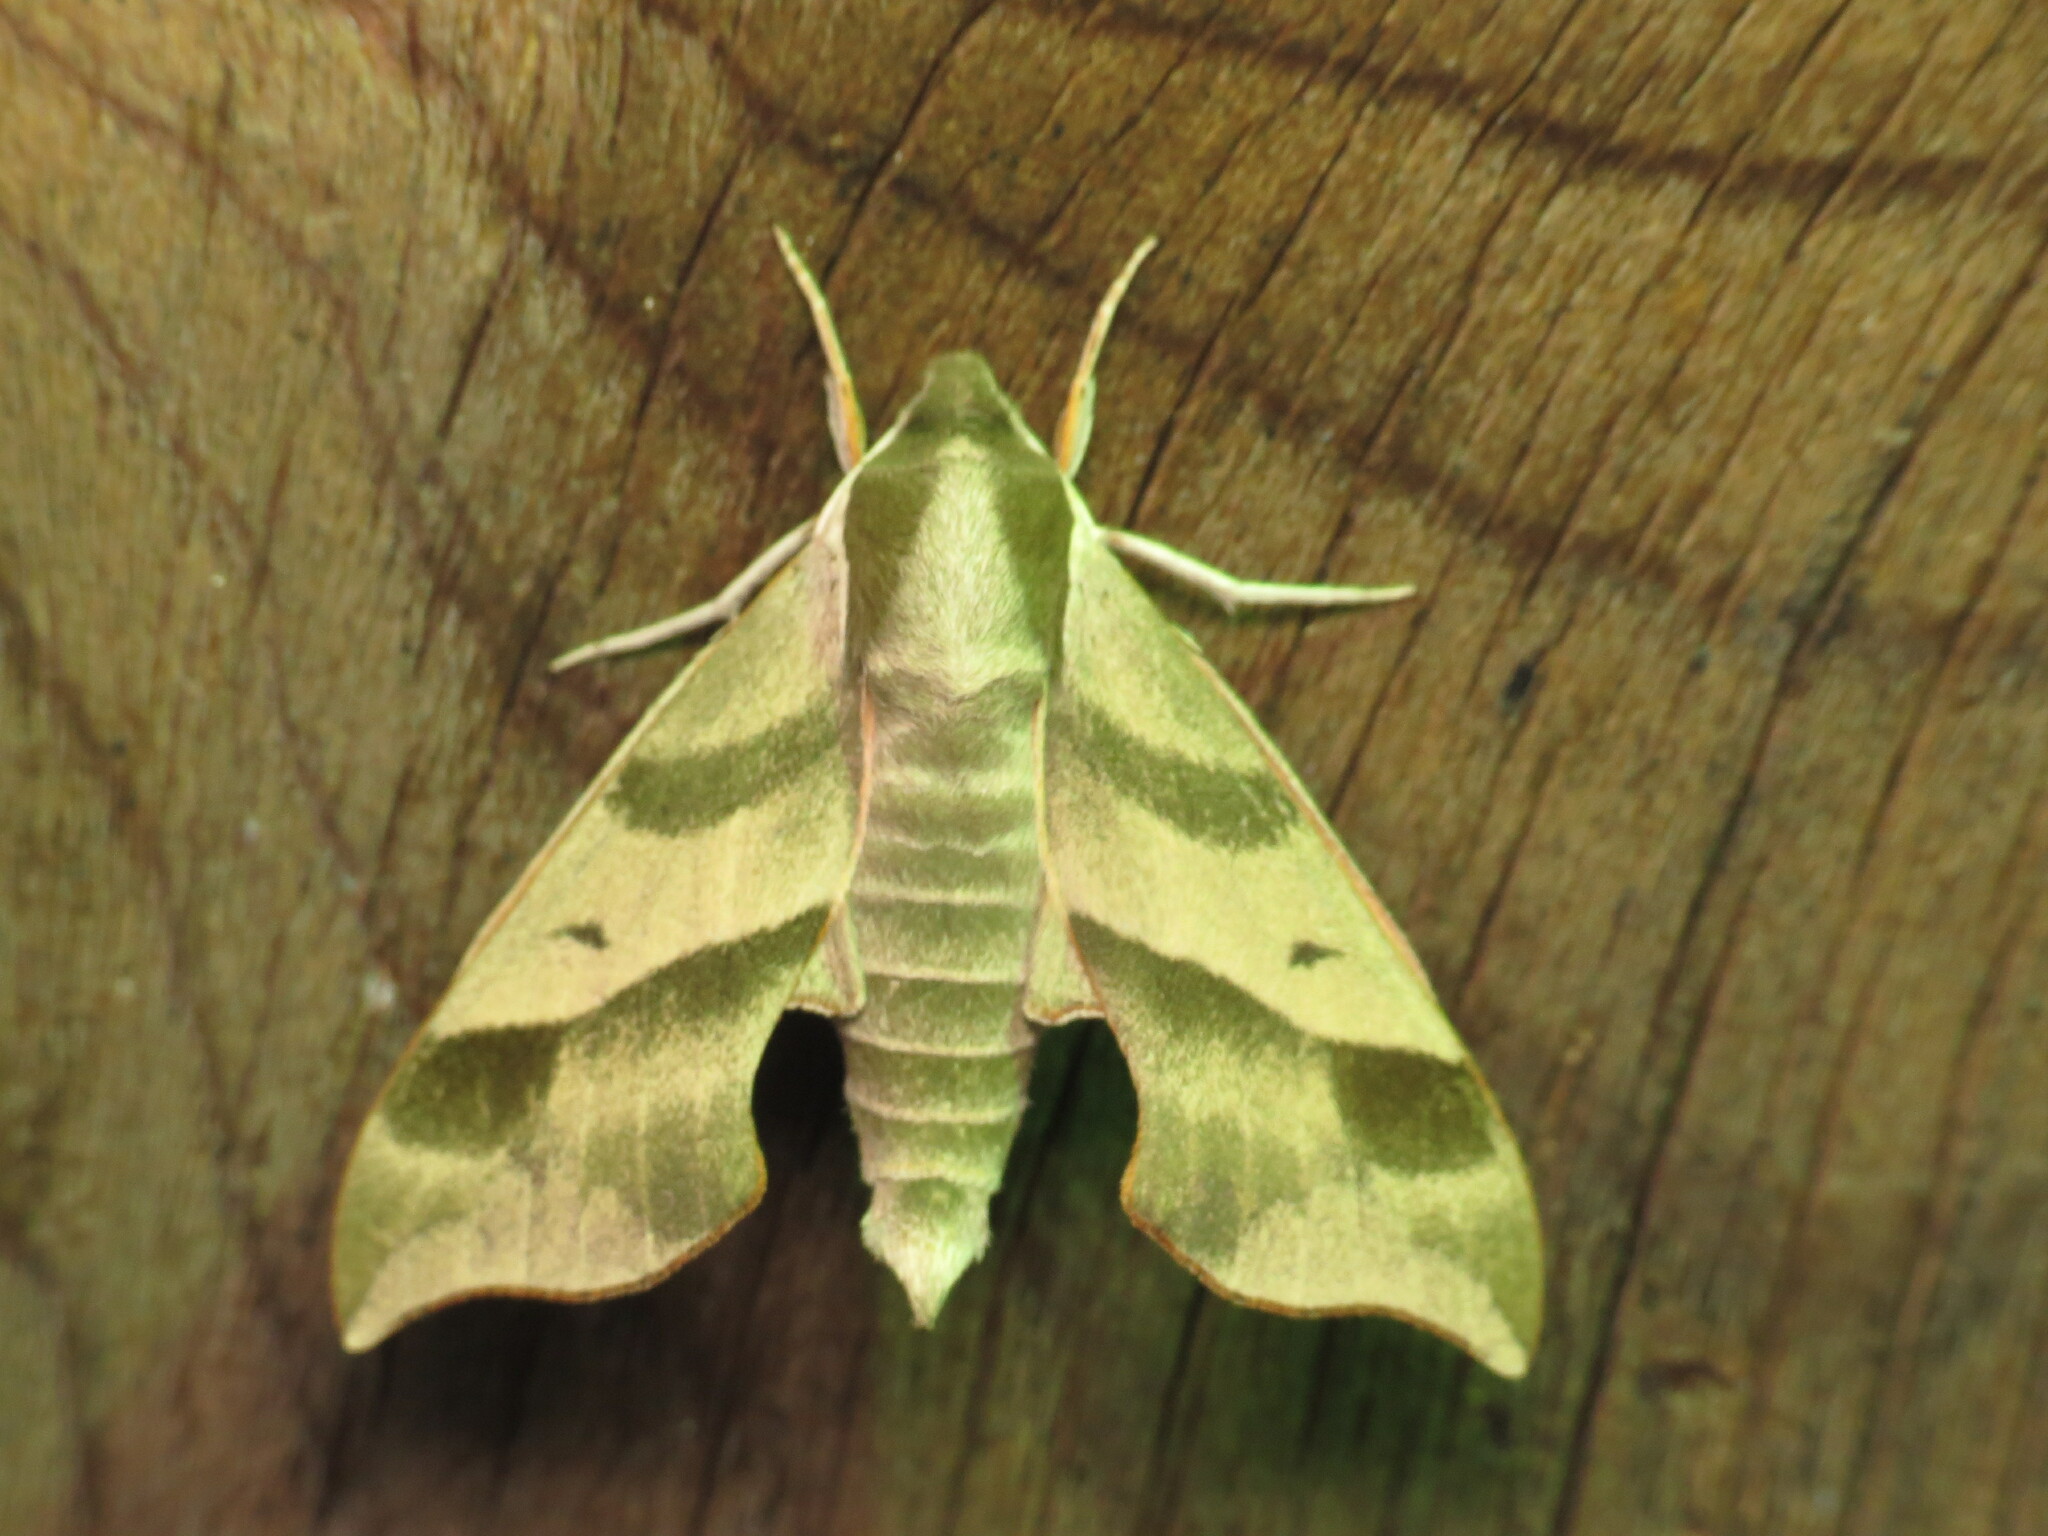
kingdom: Animalia
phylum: Arthropoda
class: Insecta
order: Lepidoptera
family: Sphingidae
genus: Darapsa
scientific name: Darapsa myron
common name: Hog sphinx
